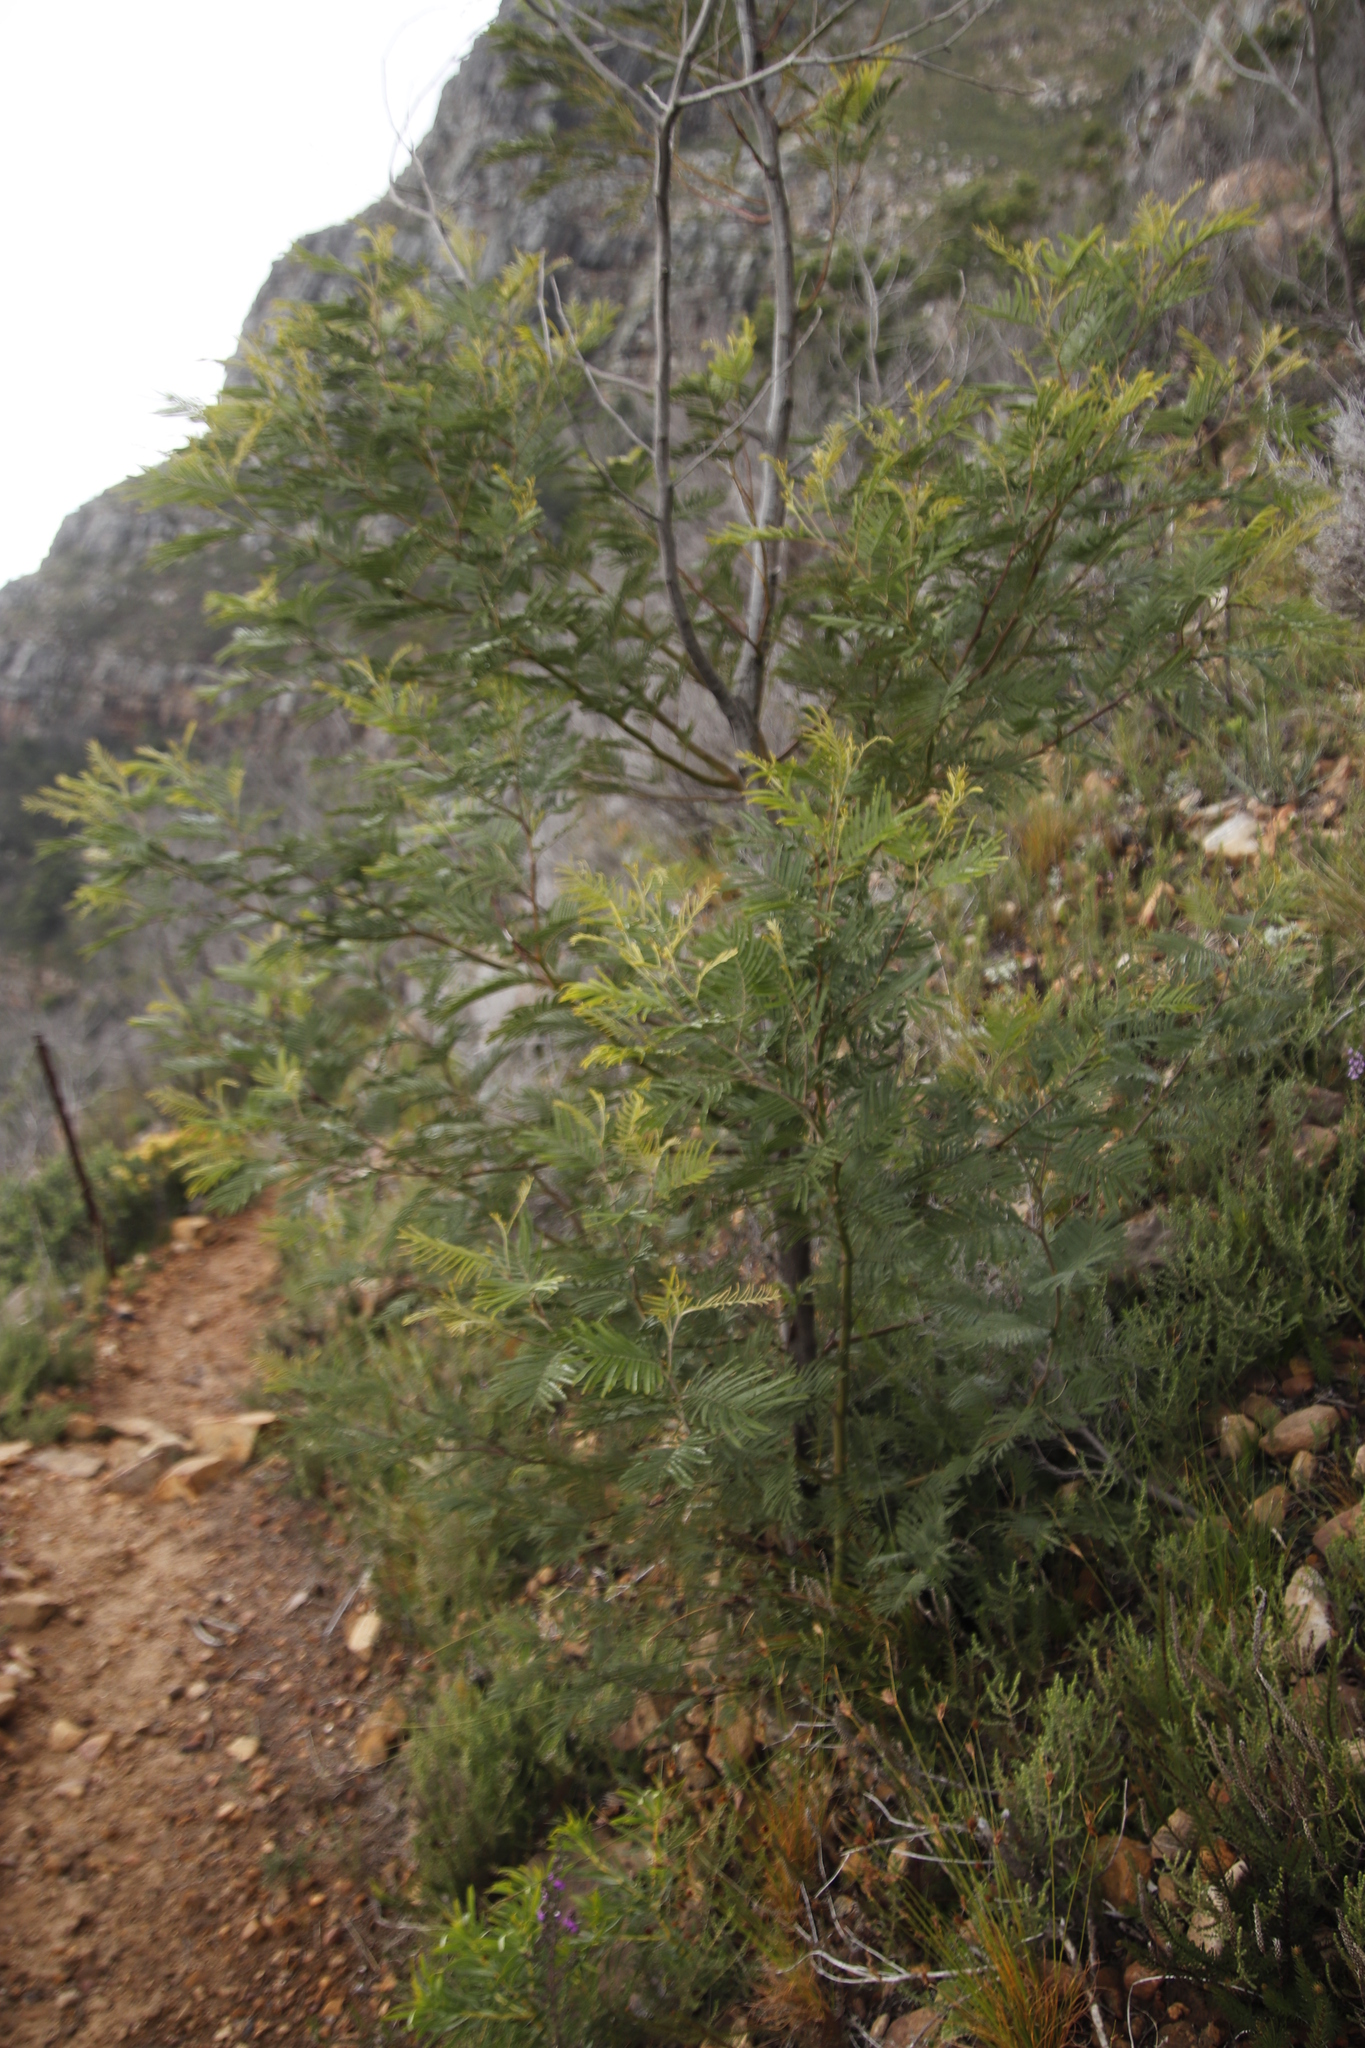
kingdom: Plantae
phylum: Tracheophyta
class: Magnoliopsida
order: Fabales
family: Fabaceae
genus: Acacia
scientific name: Acacia mearnsii
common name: Black wattle
